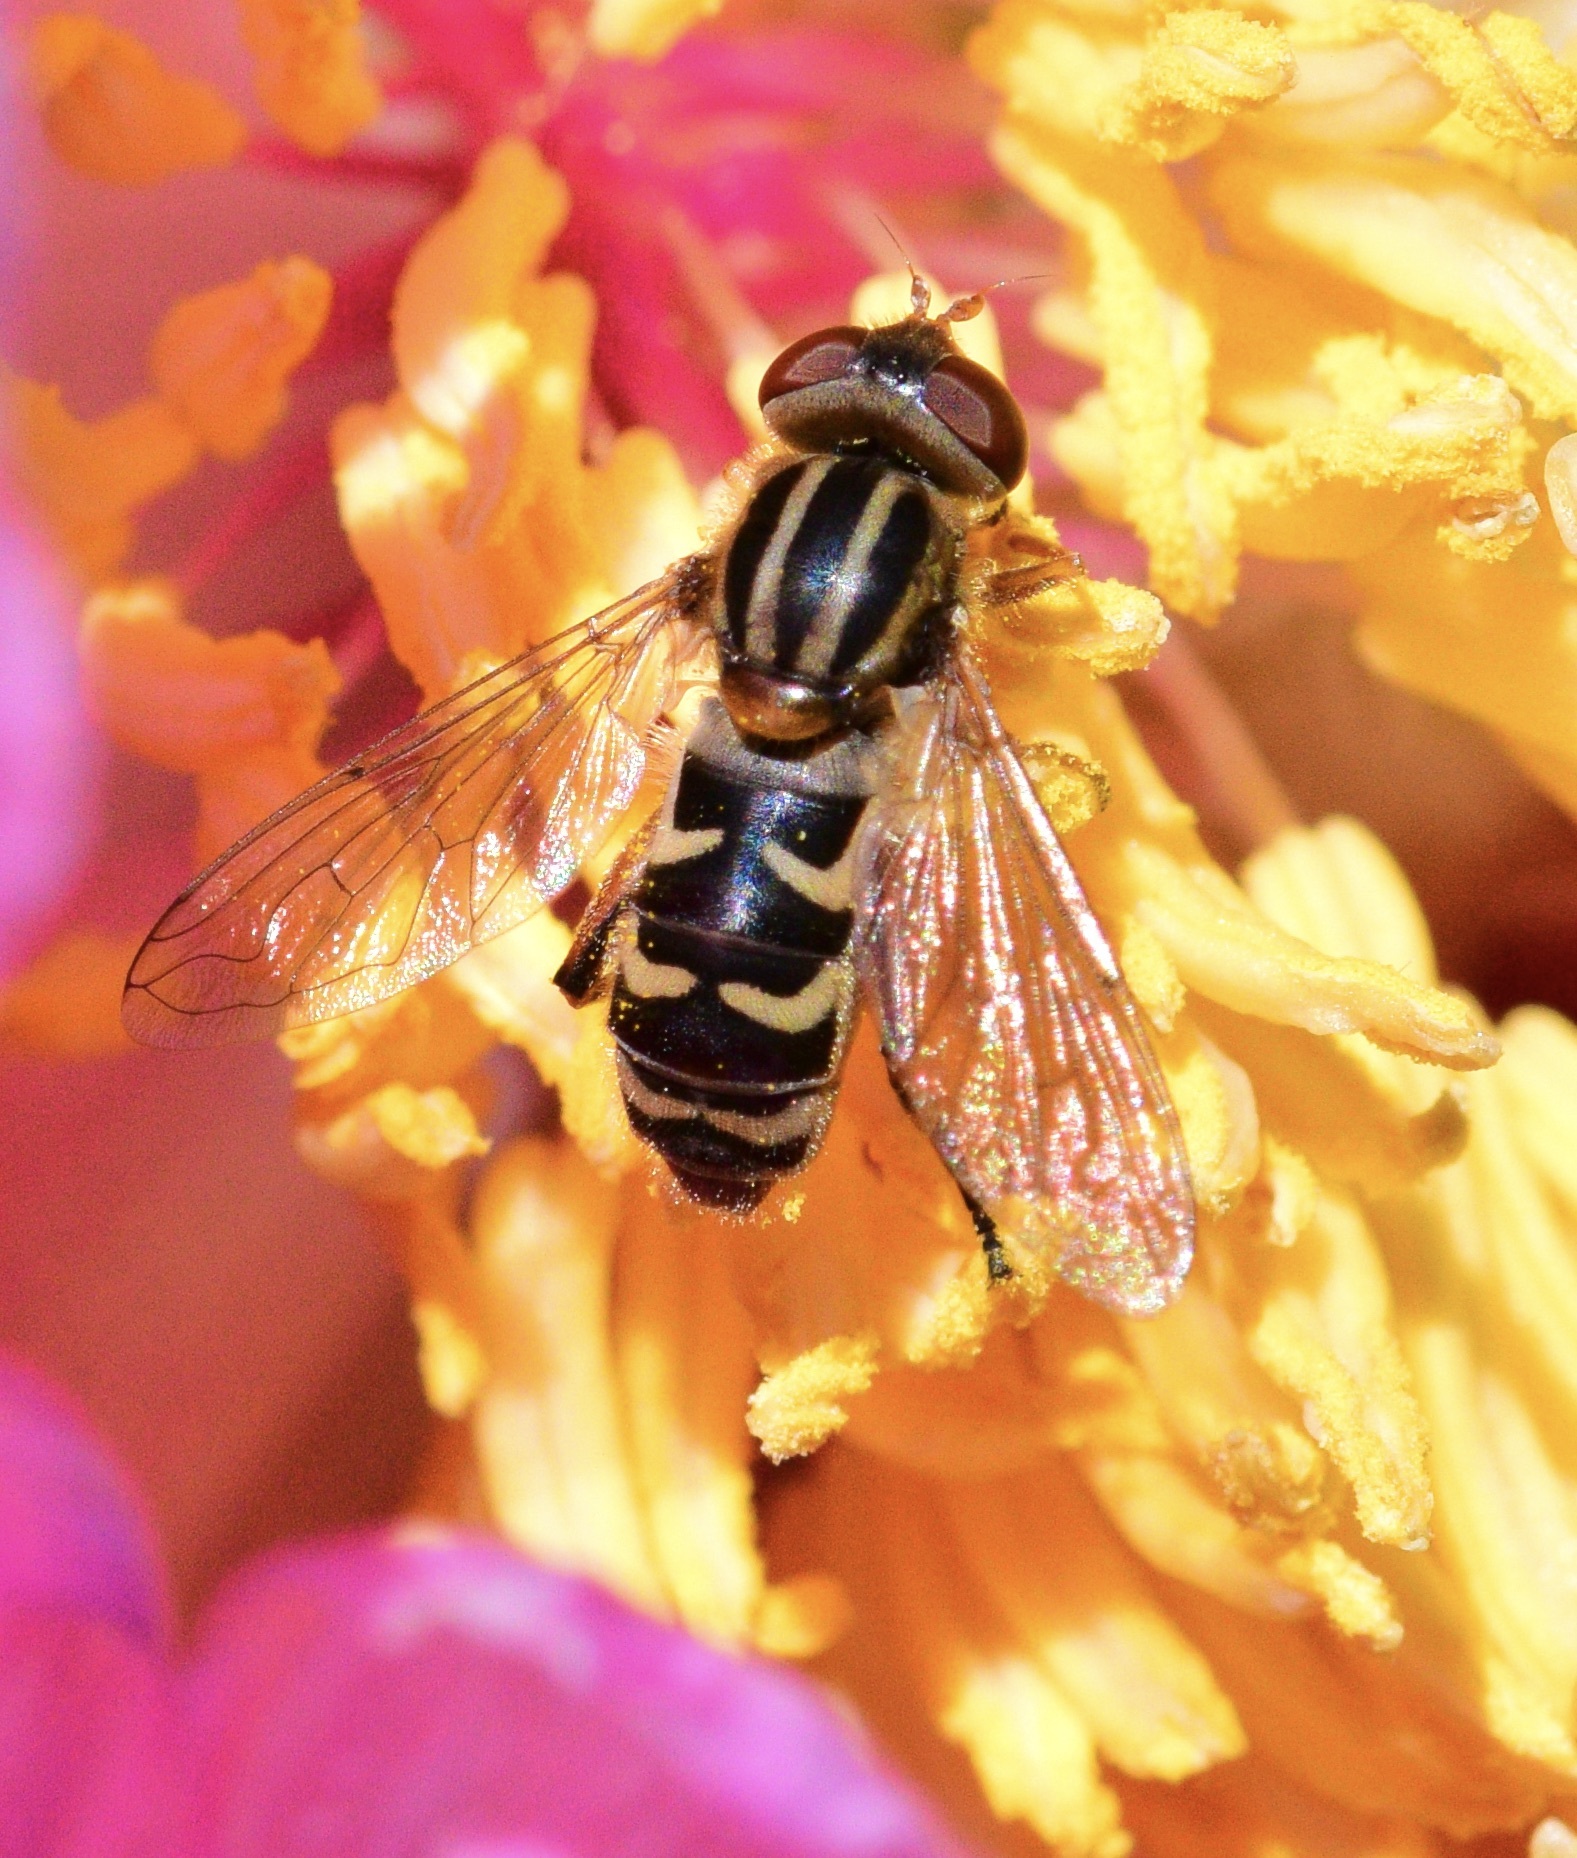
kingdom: Animalia
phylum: Arthropoda
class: Insecta
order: Diptera
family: Syrphidae
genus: Anasimyia
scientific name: Anasimyia
